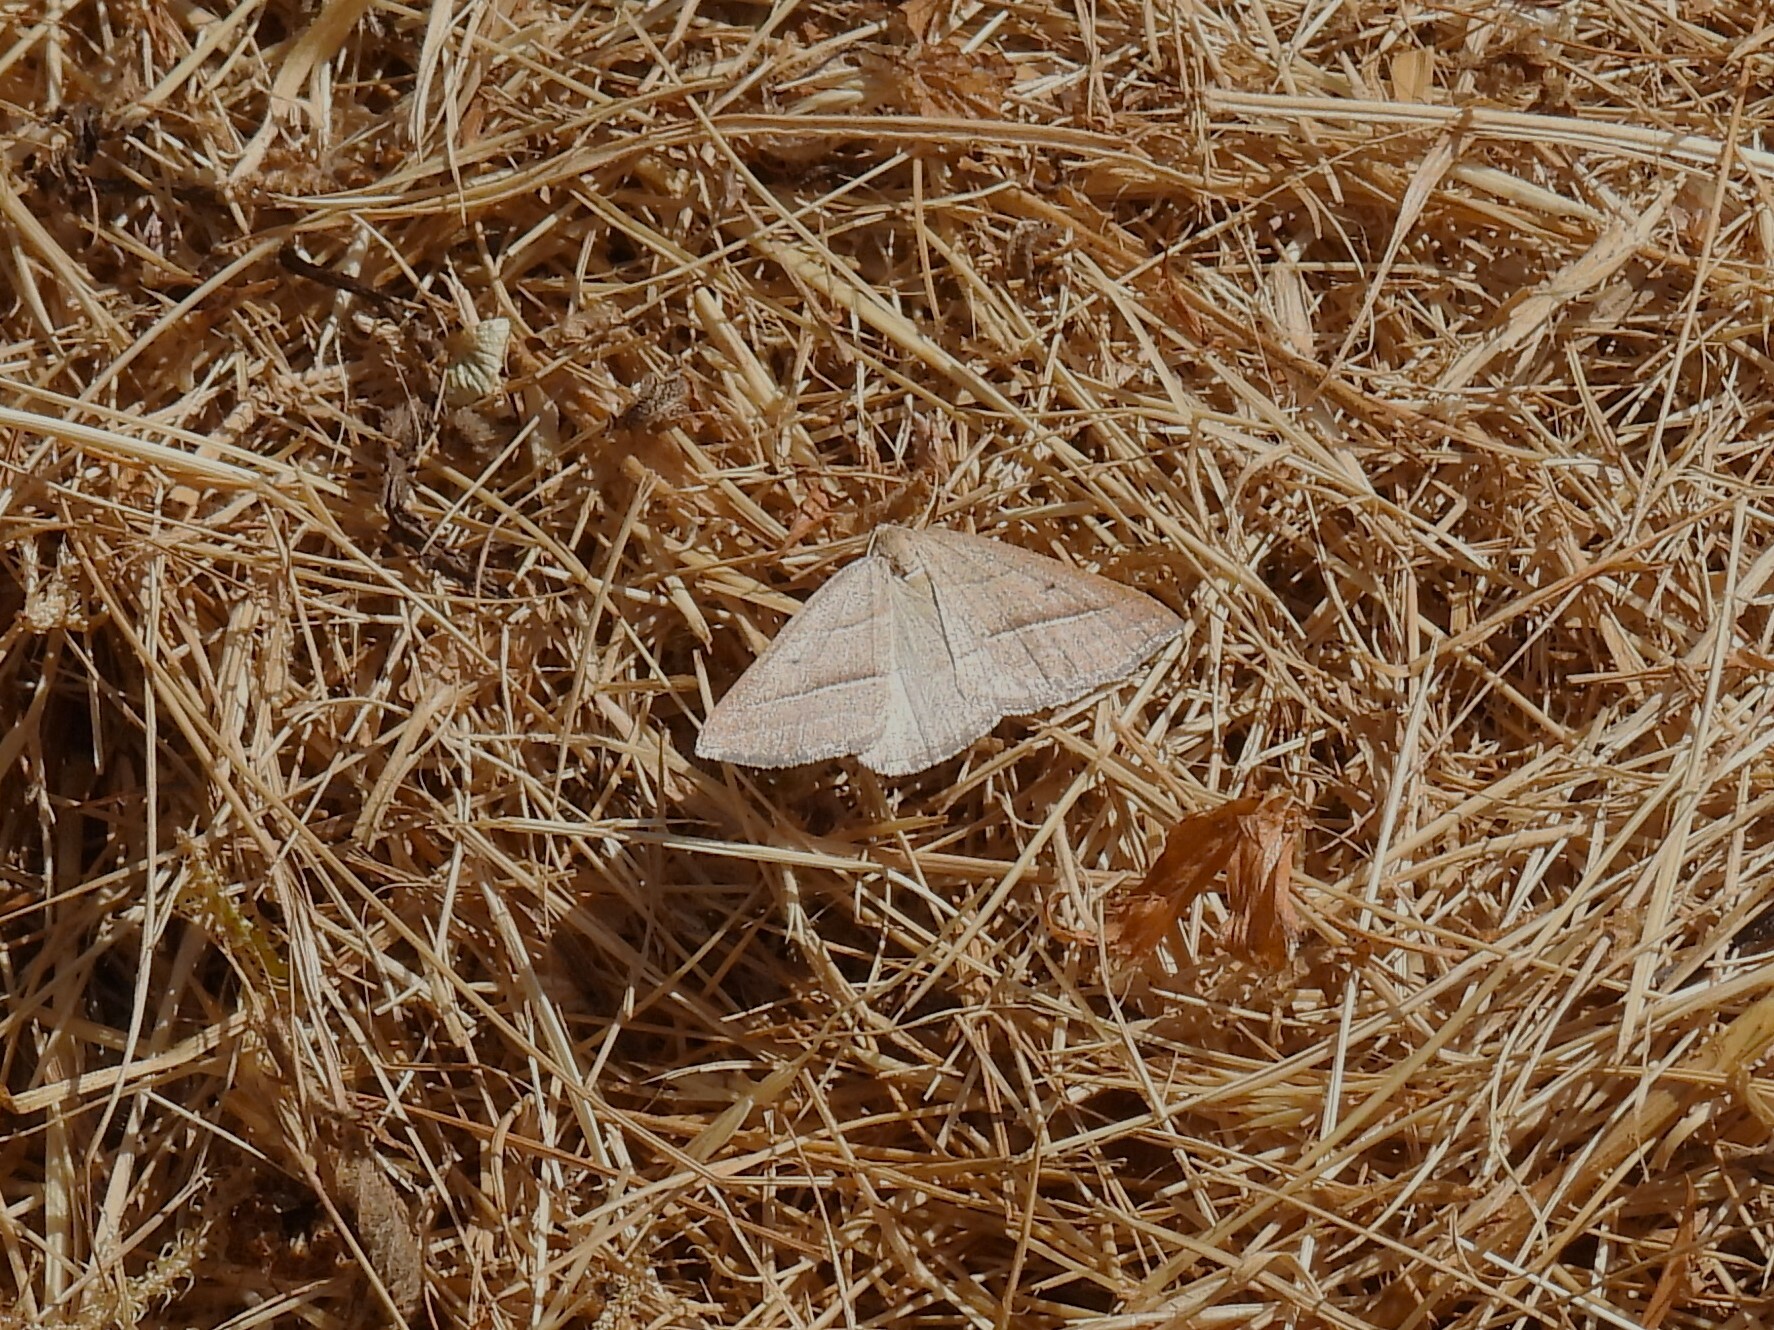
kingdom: Animalia
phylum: Arthropoda
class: Insecta
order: Lepidoptera
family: Pterophoridae
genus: Pterophorus
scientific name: Pterophorus Petrophora chlorosata
